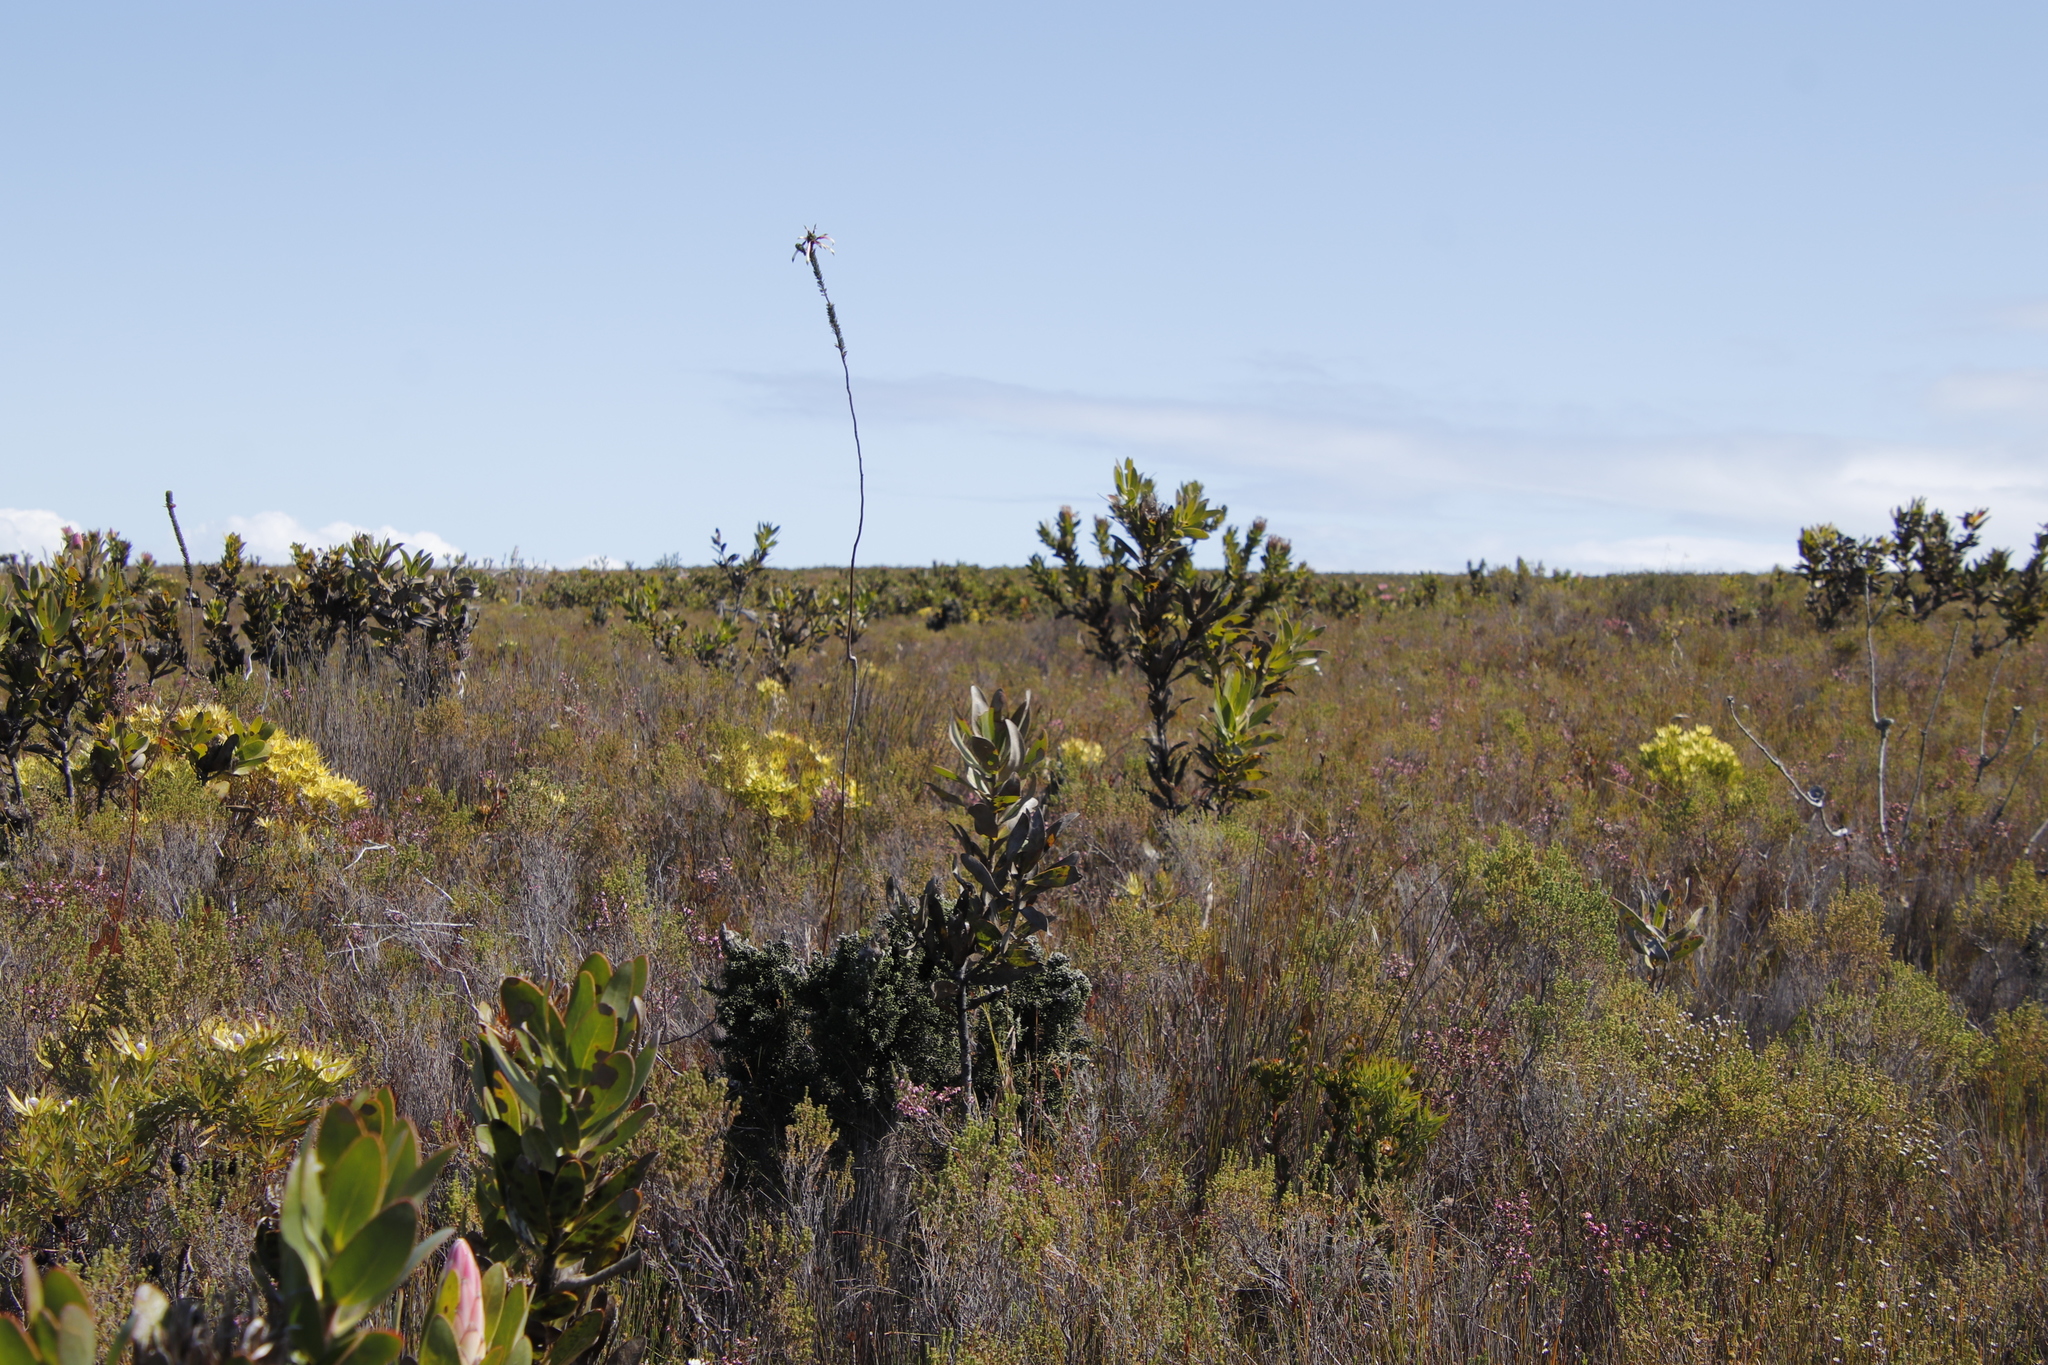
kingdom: Plantae
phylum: Tracheophyta
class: Magnoliopsida
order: Ericales
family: Ericaceae
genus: Erica
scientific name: Erica fascicularis
